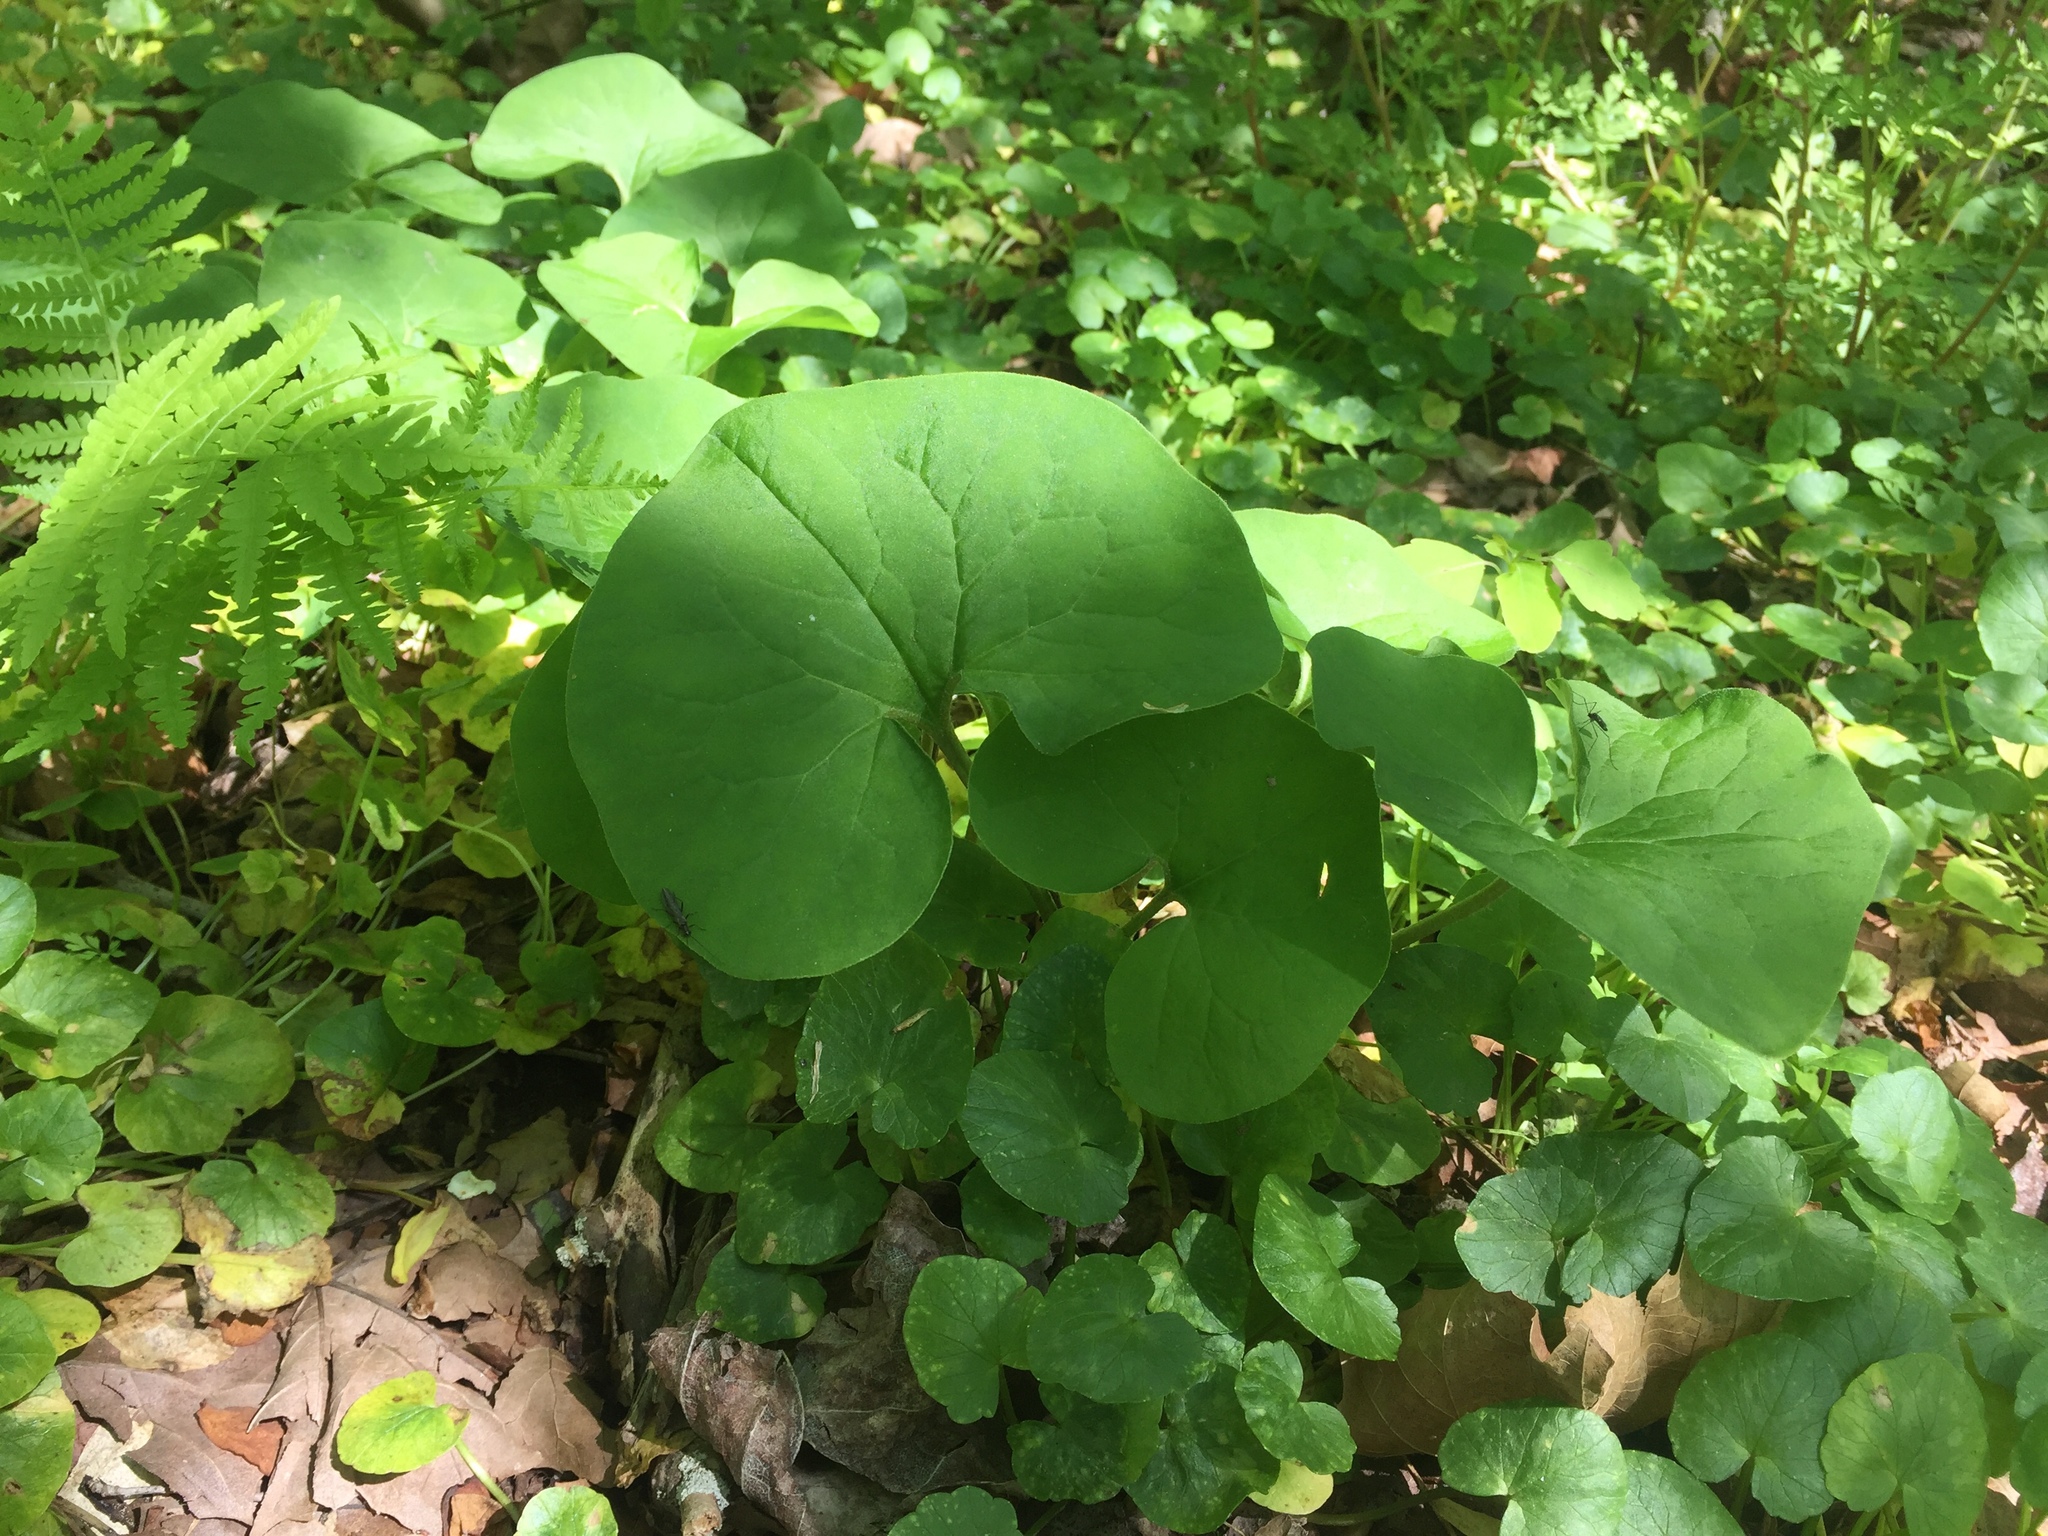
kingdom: Plantae
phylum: Tracheophyta
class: Magnoliopsida
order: Piperales
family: Aristolochiaceae
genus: Asarum
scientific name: Asarum canadense
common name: Wild ginger
